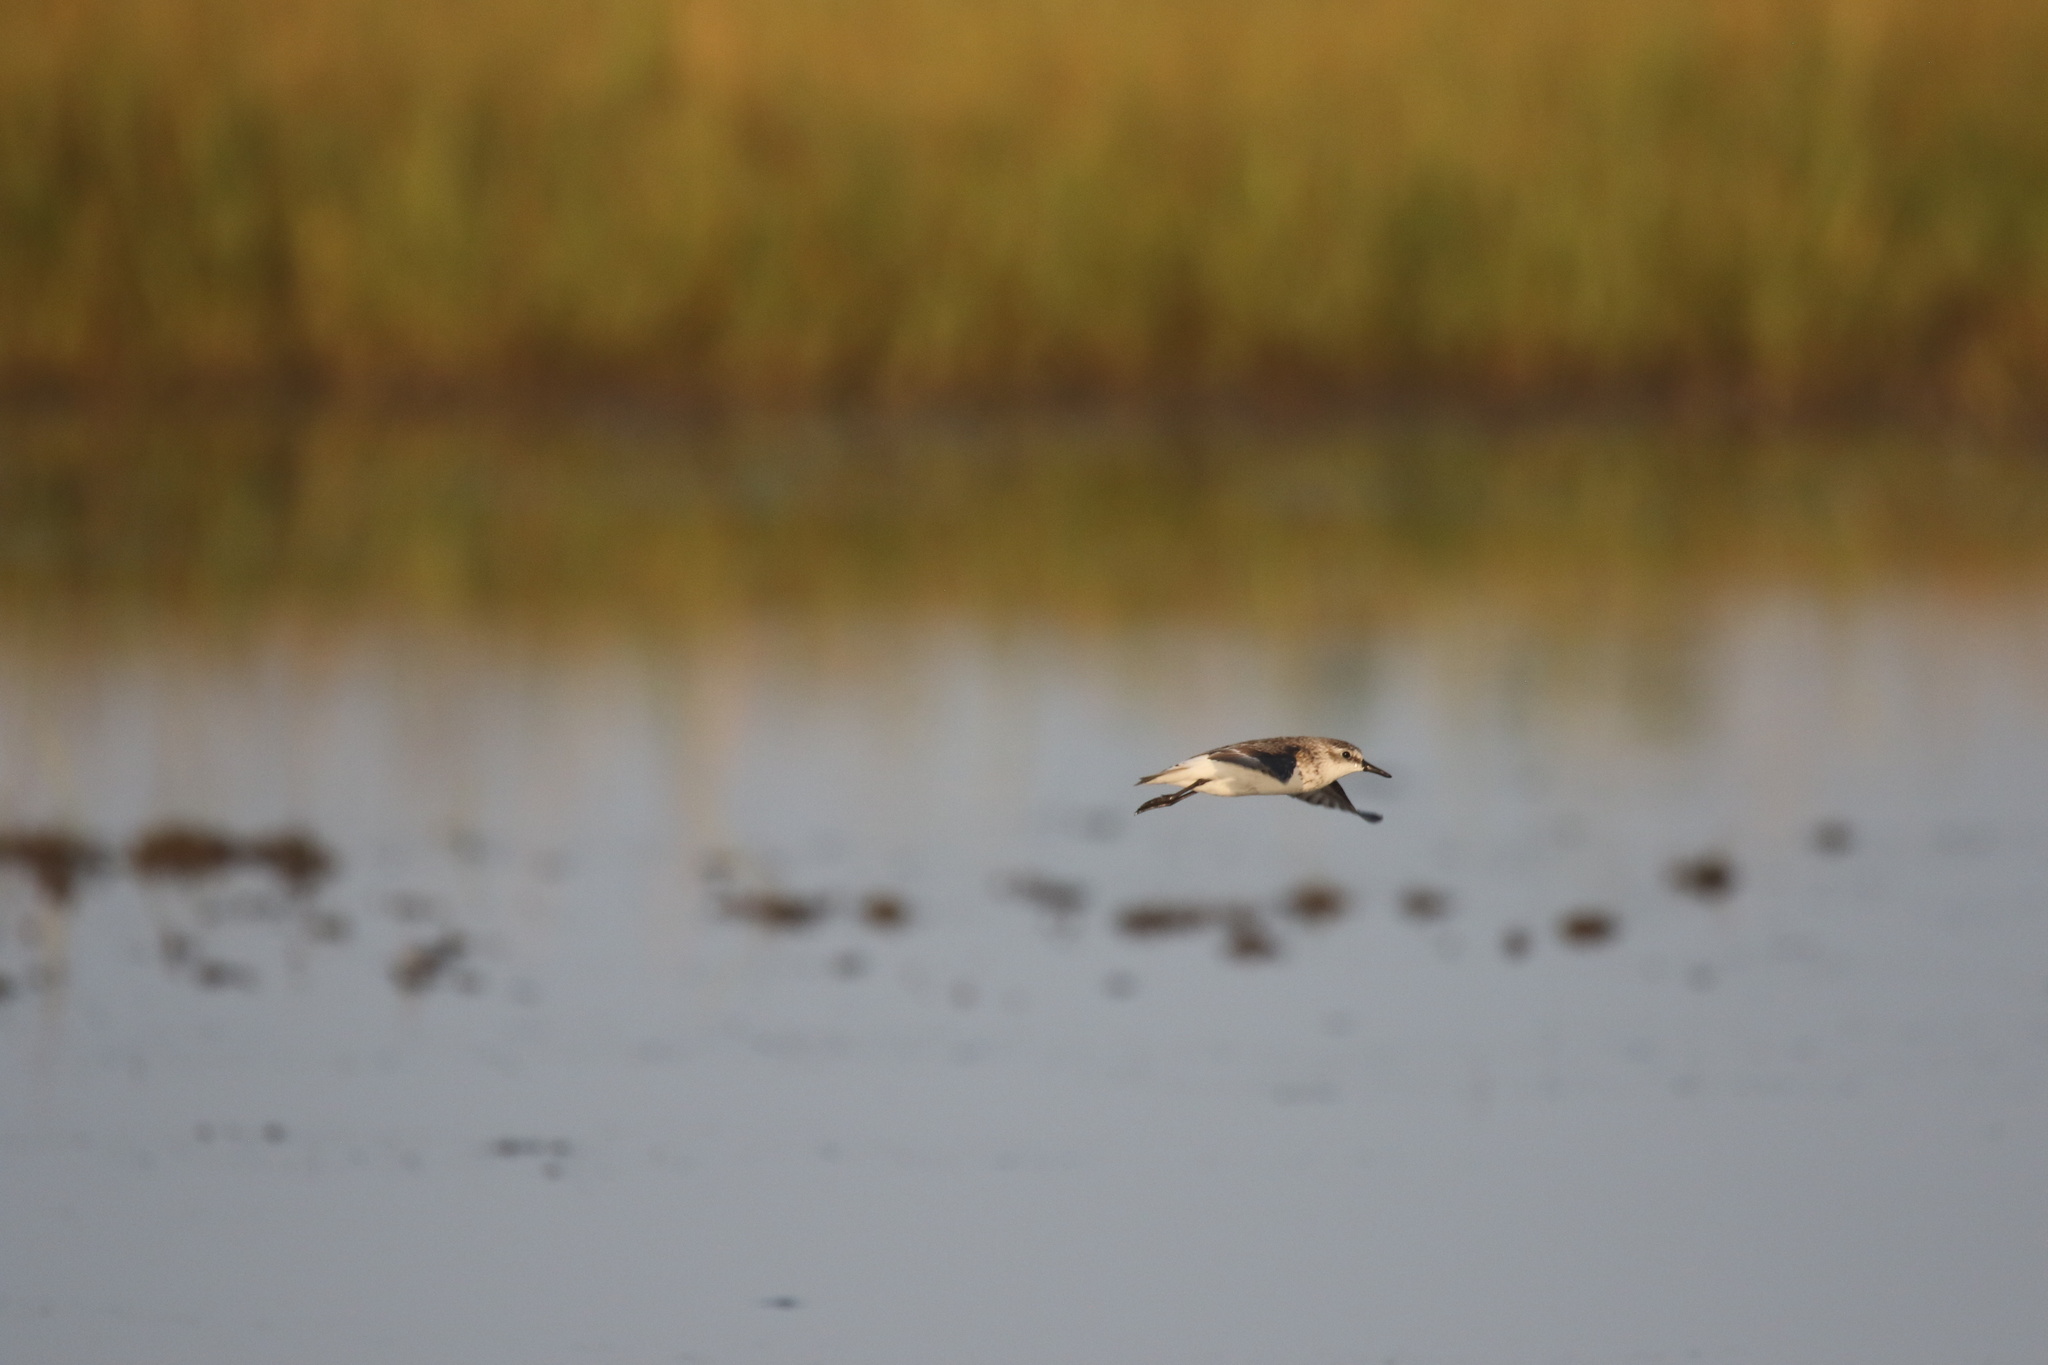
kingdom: Animalia
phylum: Chordata
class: Aves
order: Charadriiformes
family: Scolopacidae
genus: Calidris
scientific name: Calidris pusilla
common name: Semipalmated sandpiper
